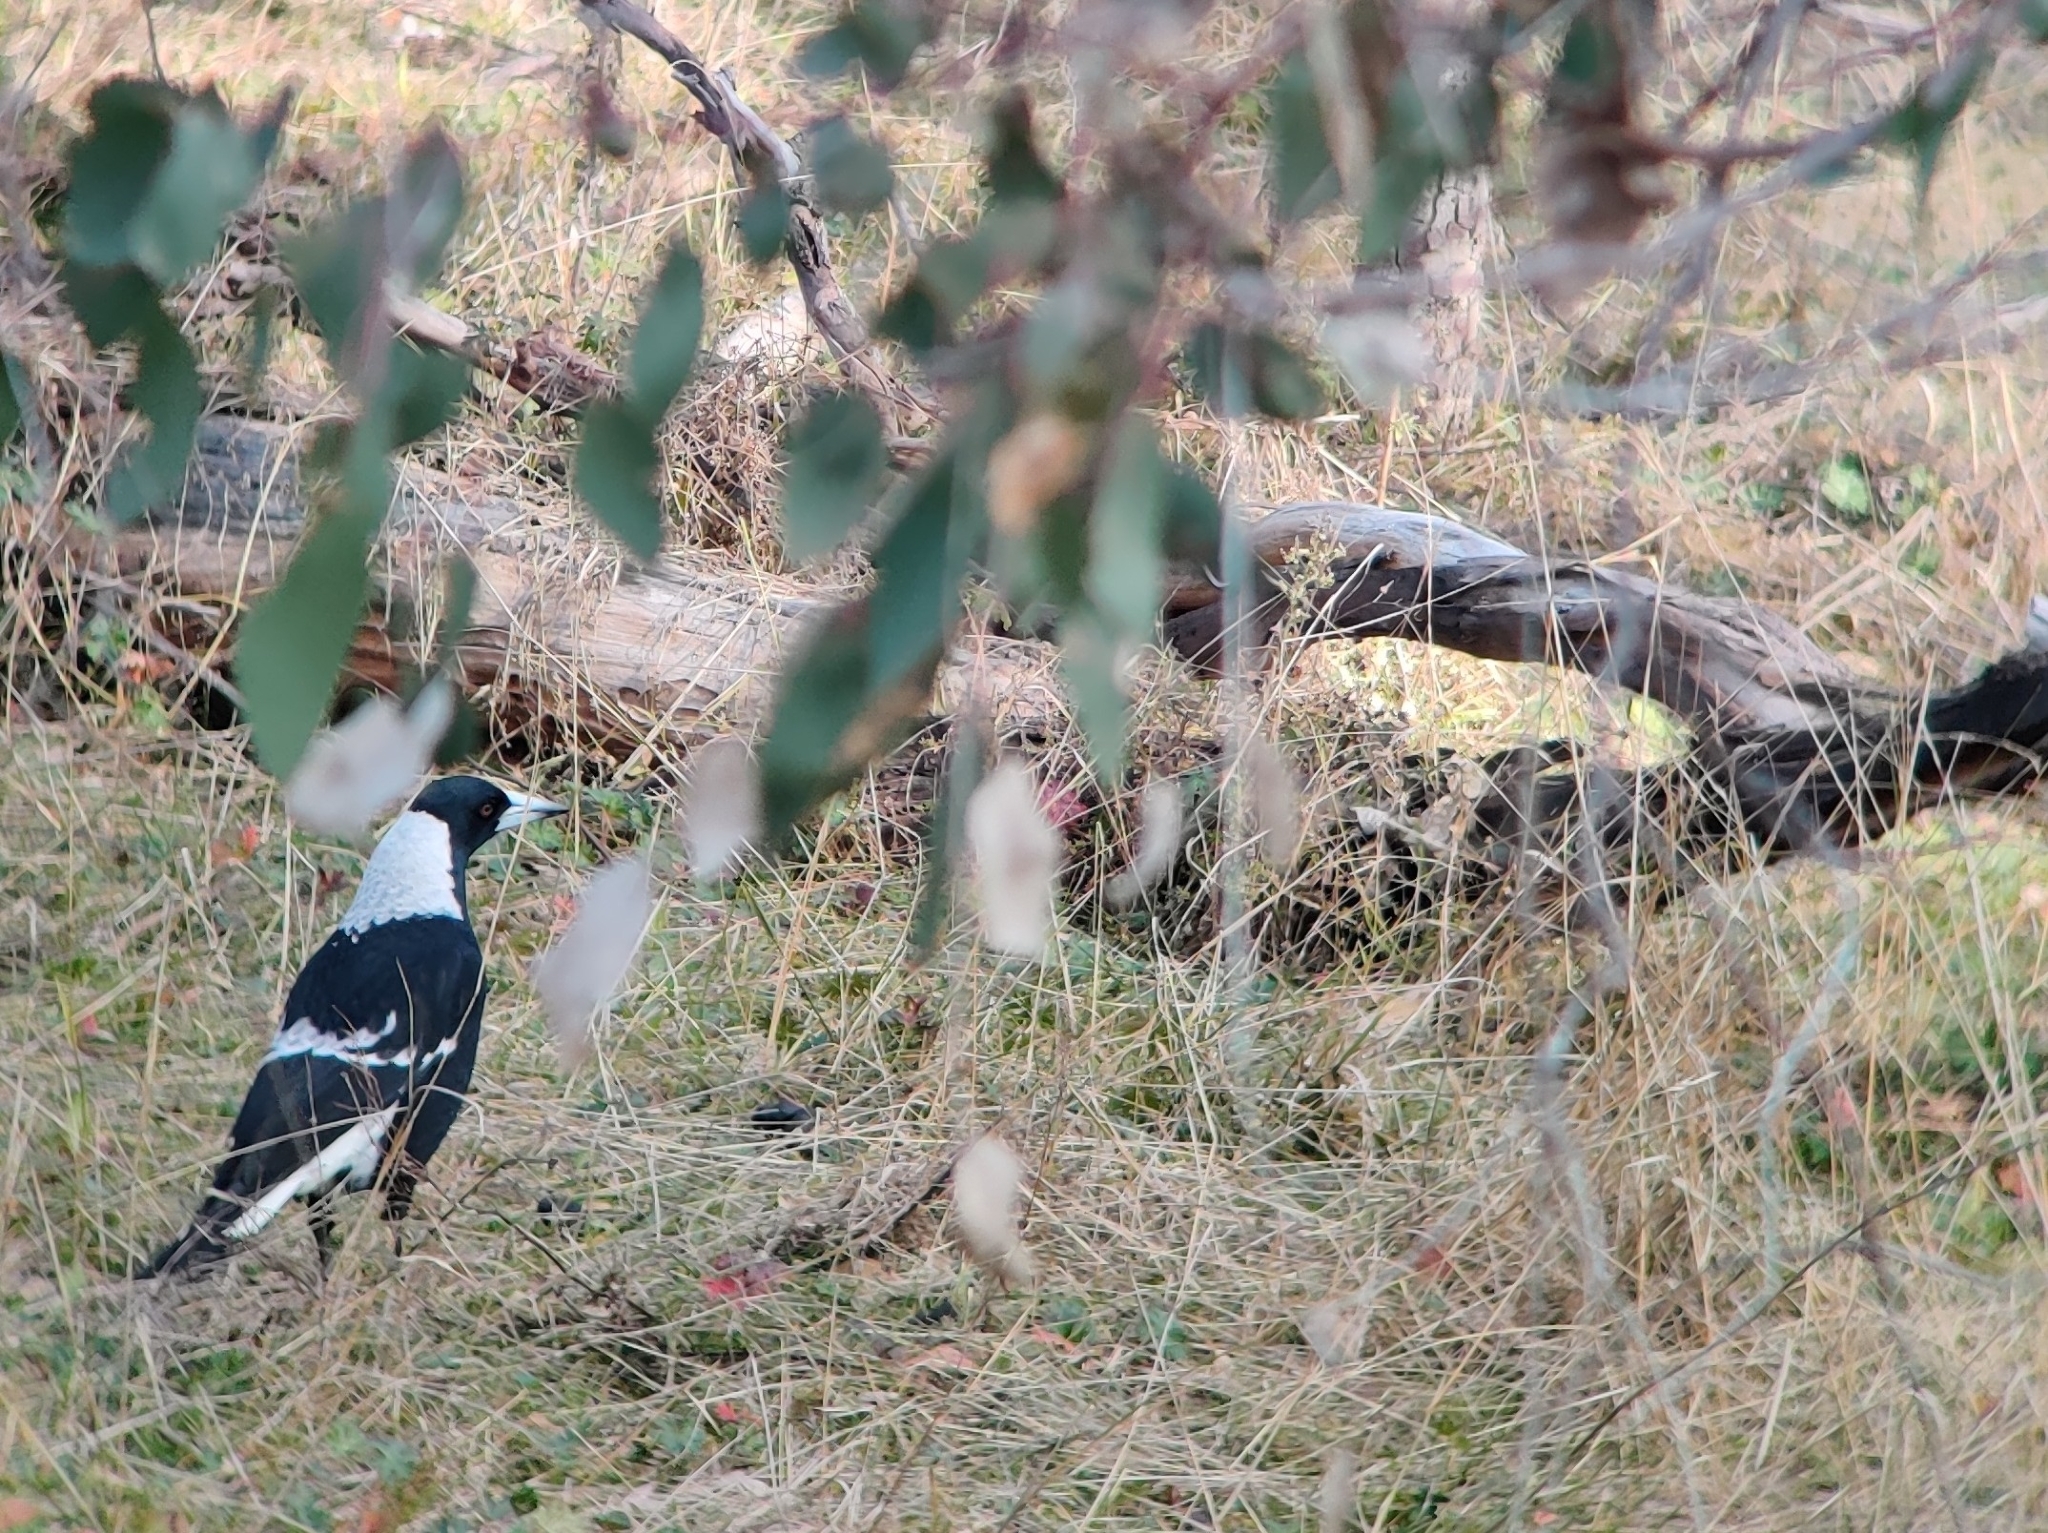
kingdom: Animalia
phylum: Chordata
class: Aves
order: Passeriformes
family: Cracticidae
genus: Gymnorhina
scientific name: Gymnorhina tibicen
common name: Australian magpie
